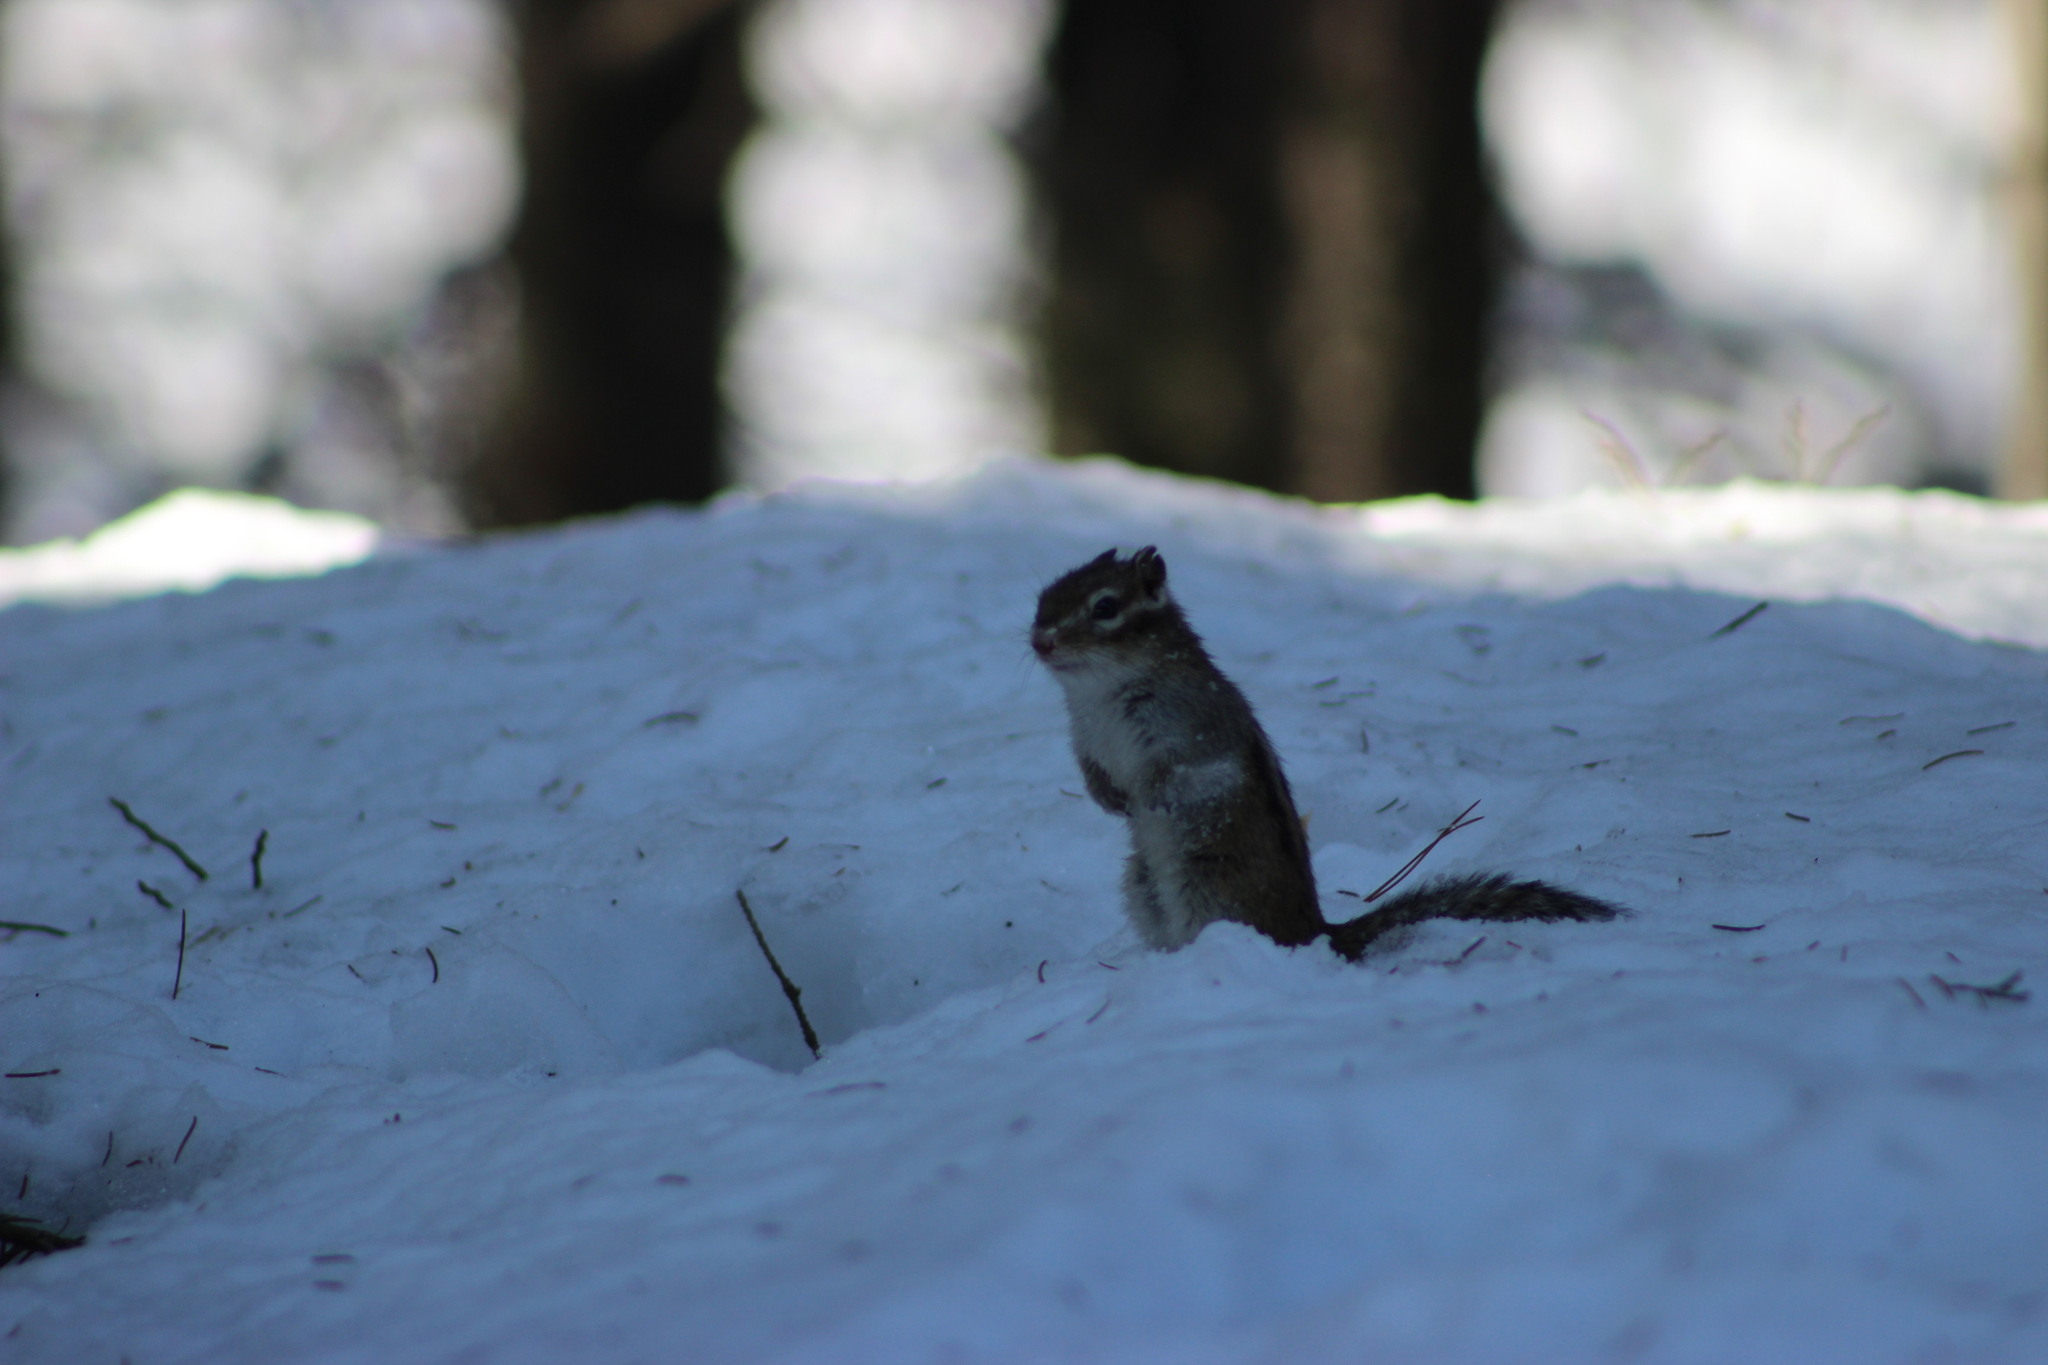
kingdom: Animalia
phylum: Chordata
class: Mammalia
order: Rodentia
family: Sciuridae
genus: Tamias
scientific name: Tamias sibiricus
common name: Siberian chipmunk
